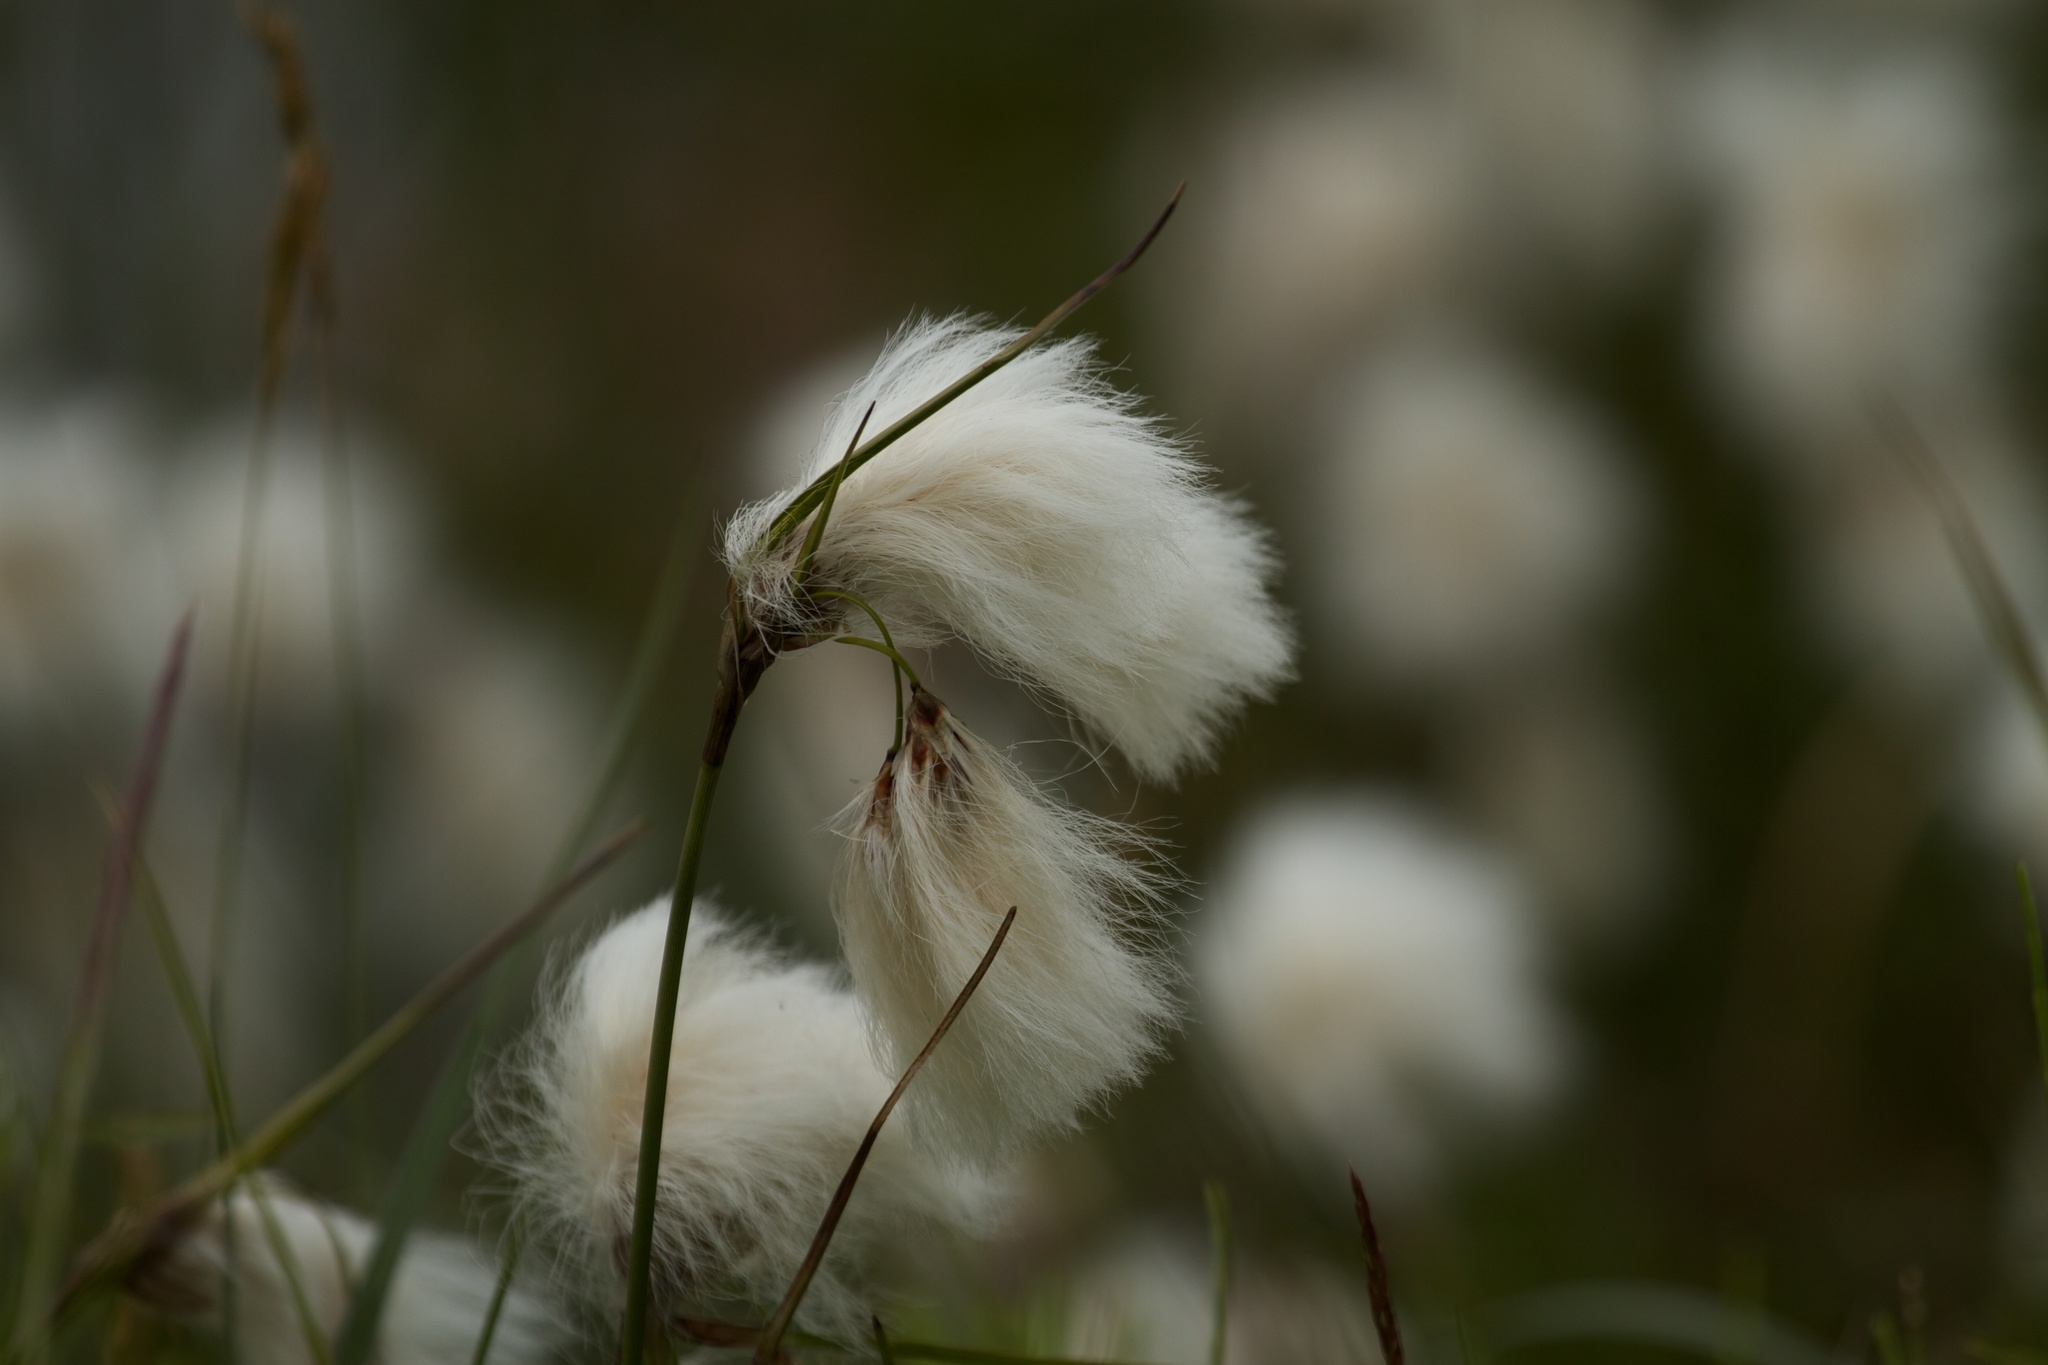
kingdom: Plantae
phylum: Tracheophyta
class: Liliopsida
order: Poales
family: Cyperaceae
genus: Eriophorum
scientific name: Eriophorum scheuchzeri
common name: Scheuchzer's cottongrass
